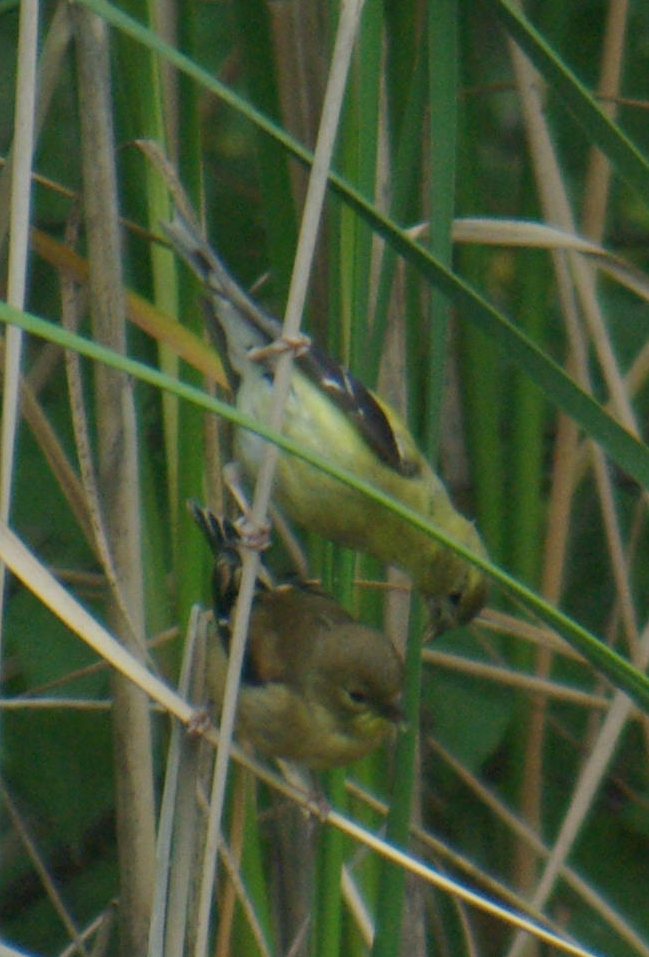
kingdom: Animalia
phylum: Chordata
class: Aves
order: Passeriformes
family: Fringillidae
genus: Spinus
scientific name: Spinus tristis
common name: American goldfinch
